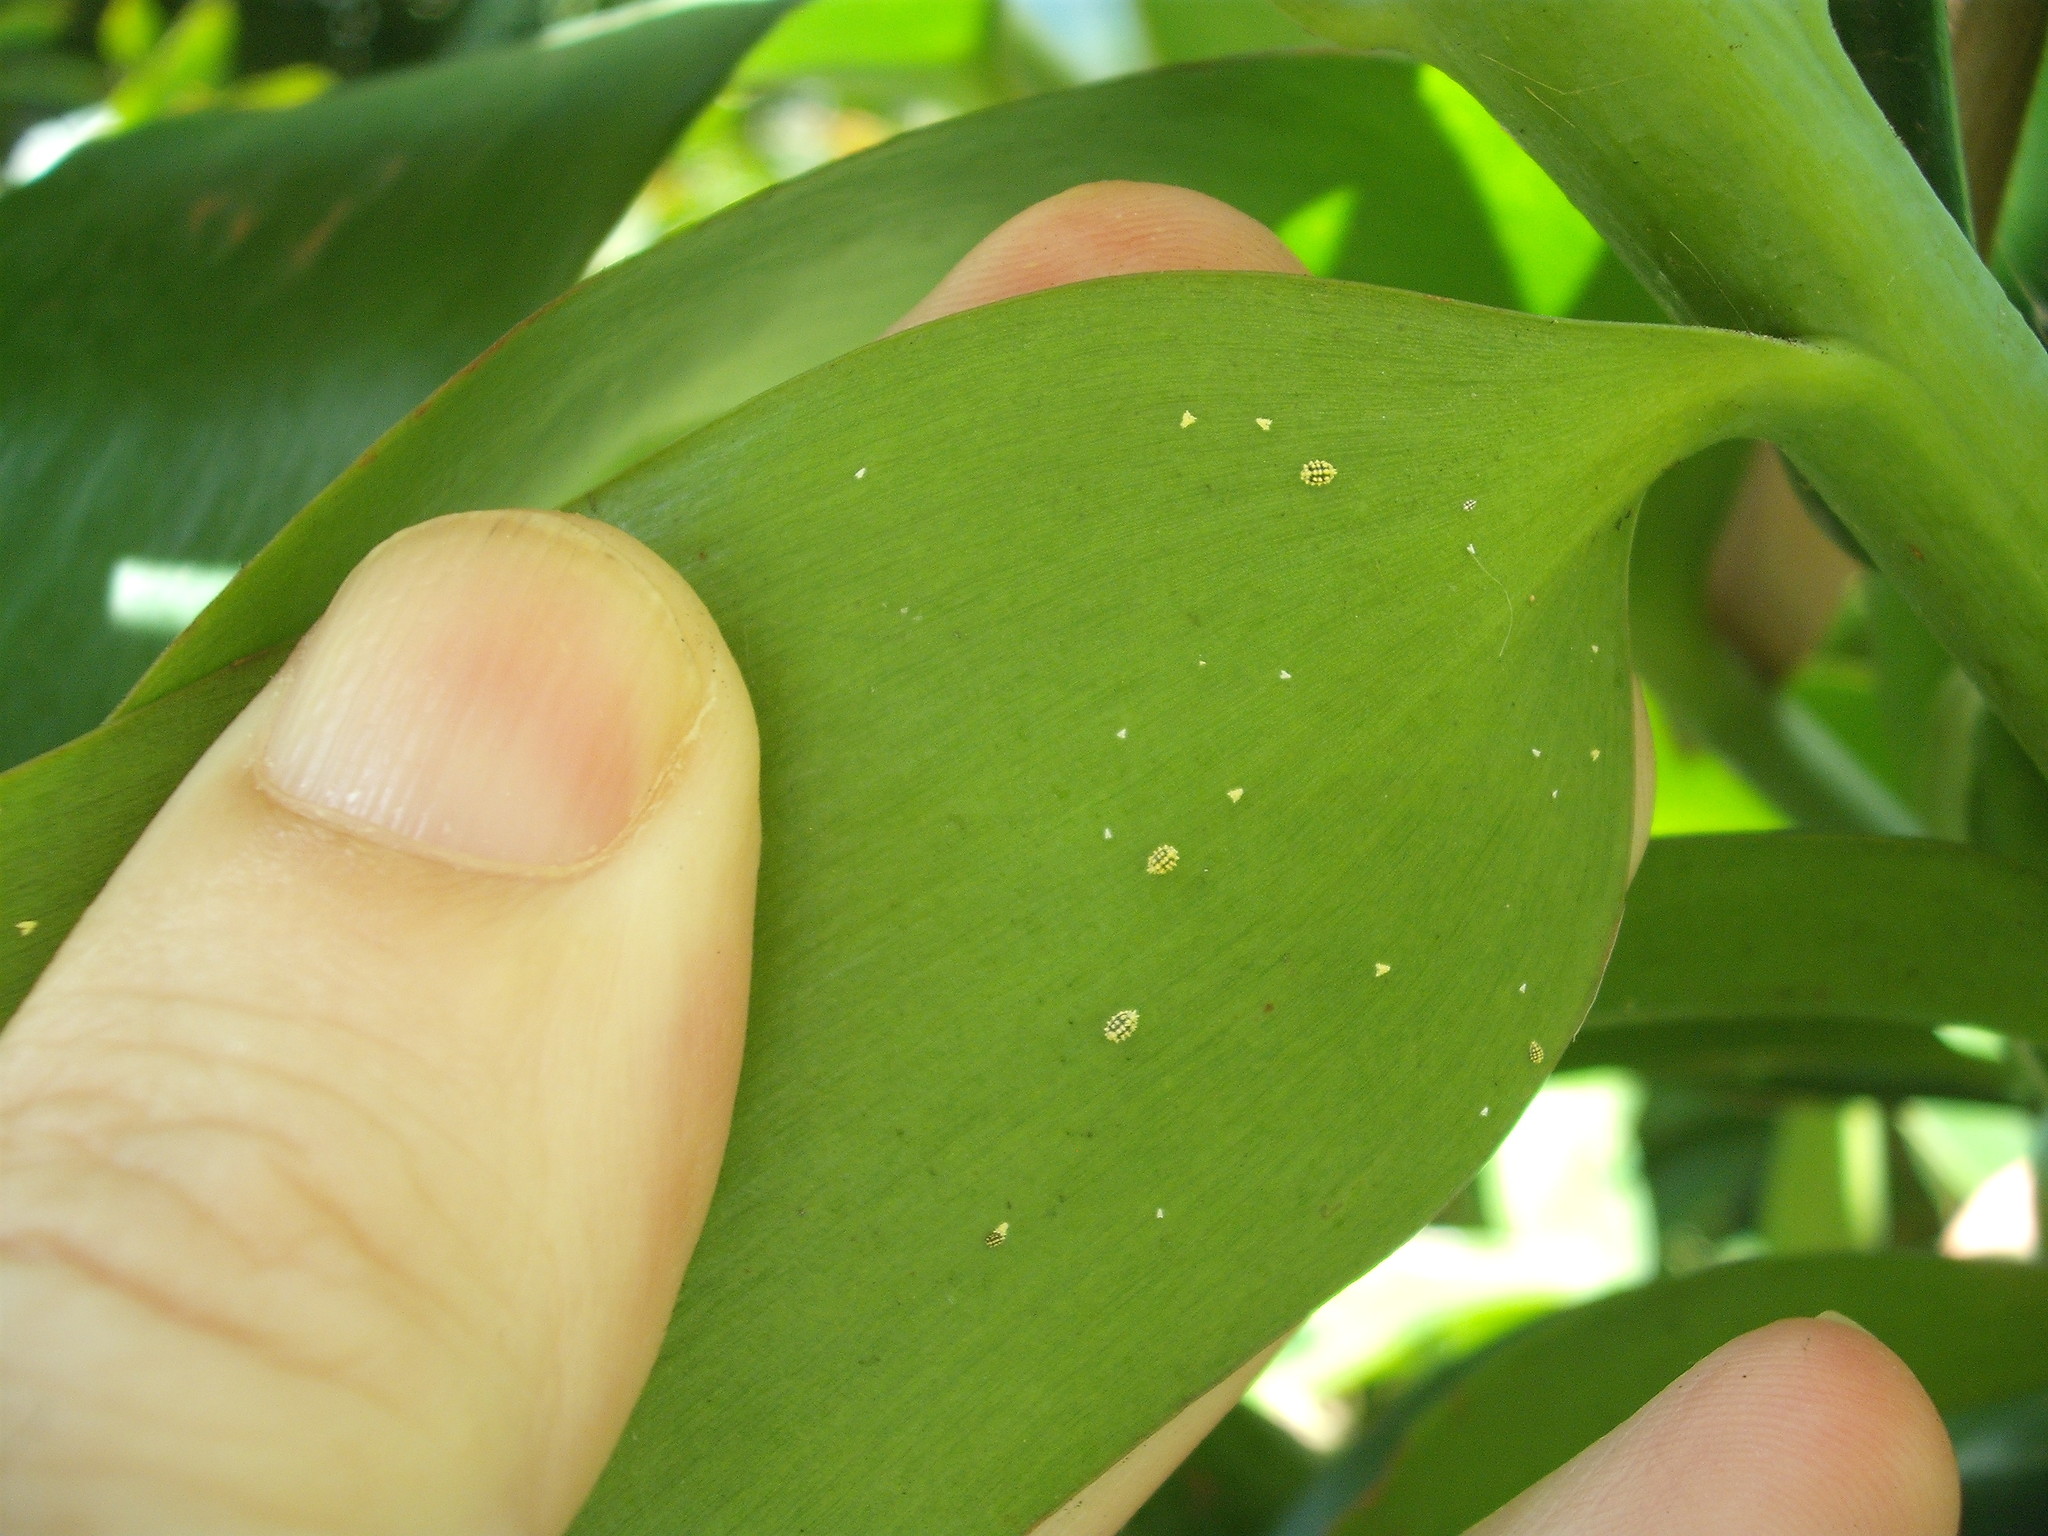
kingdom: Animalia
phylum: Arthropoda
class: Insecta
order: Hemiptera
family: Pseudococcidae
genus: Nipaecoccus
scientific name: Nipaecoccus aurilanatus
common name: Mealybug
